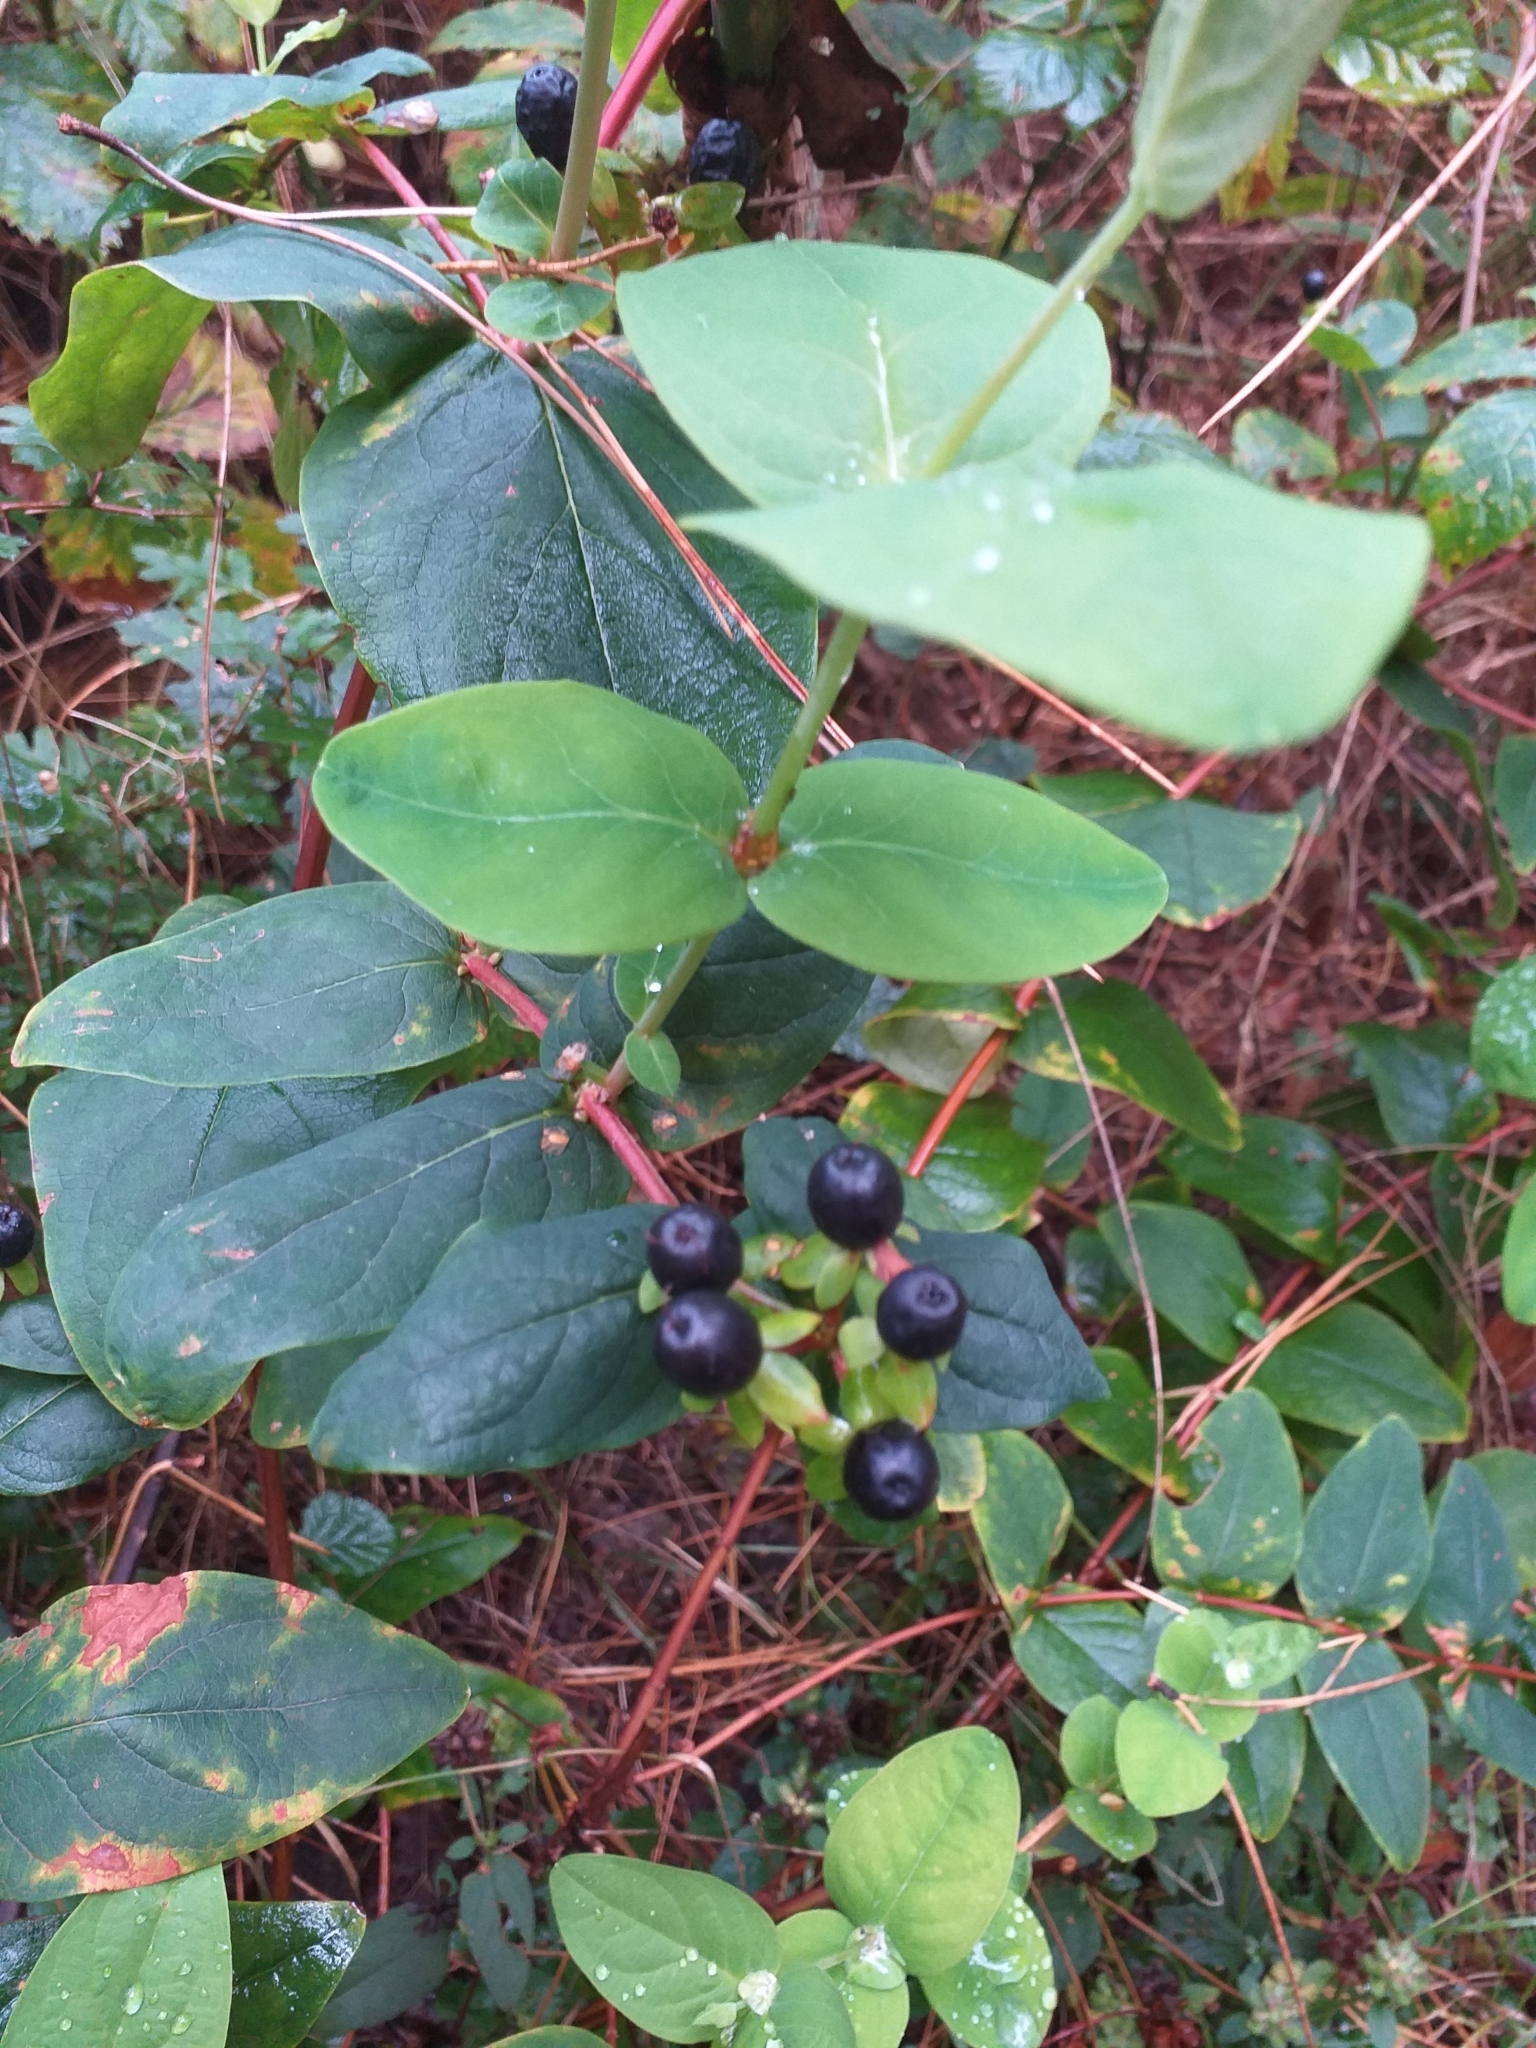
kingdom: Plantae
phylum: Tracheophyta
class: Magnoliopsida
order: Malpighiales
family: Hypericaceae
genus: Hypericum
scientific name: Hypericum androsaemum
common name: Sweet-amber
